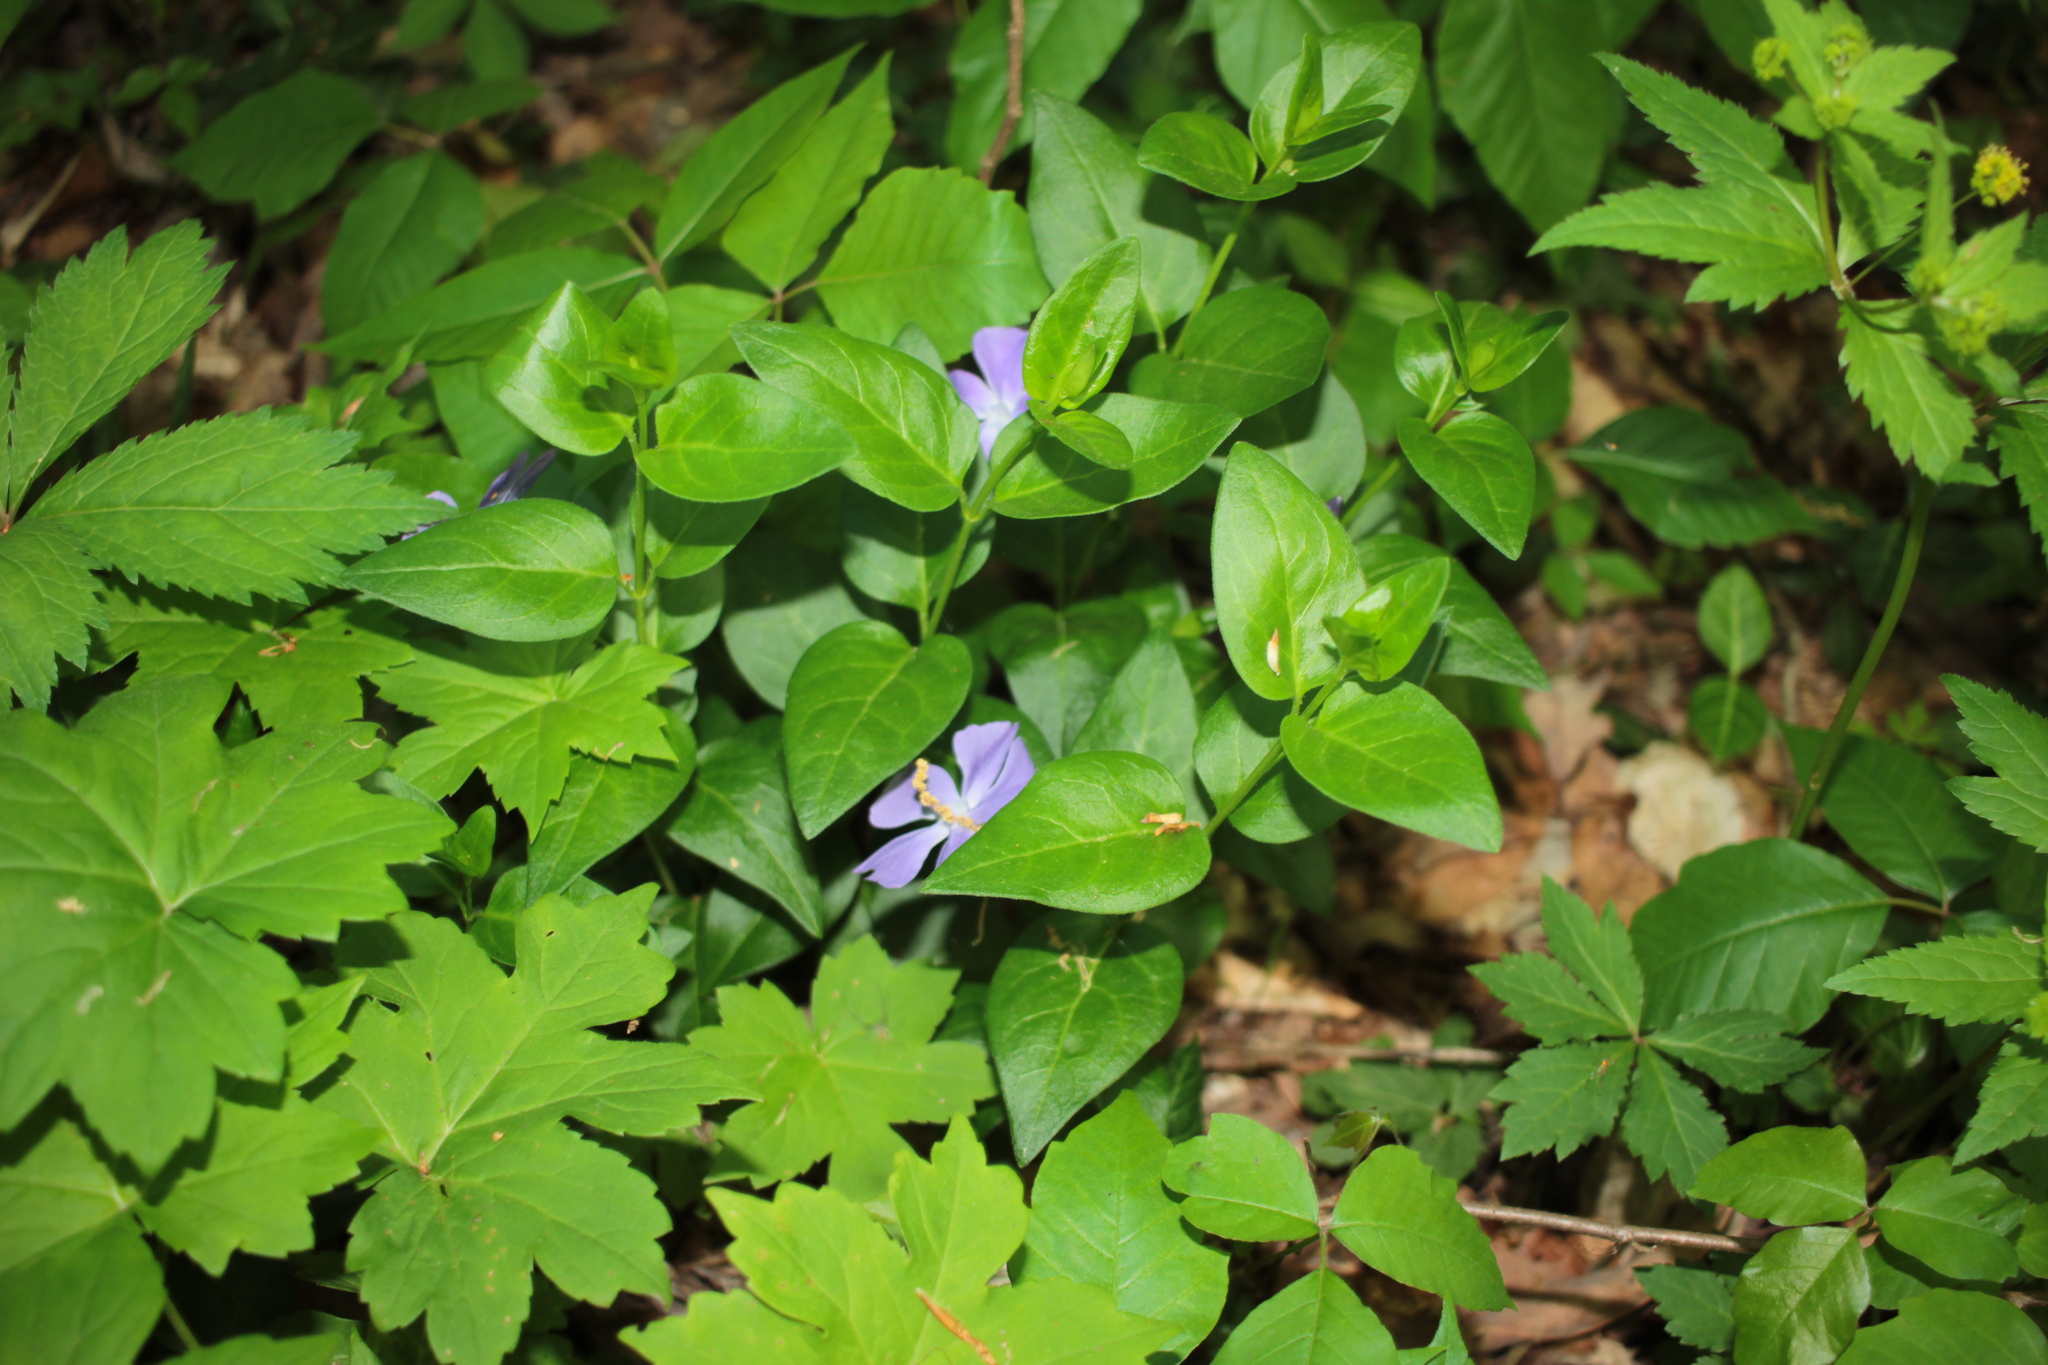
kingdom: Plantae
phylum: Tracheophyta
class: Magnoliopsida
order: Gentianales
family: Apocynaceae
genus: Vinca
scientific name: Vinca major
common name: Greater periwinkle
